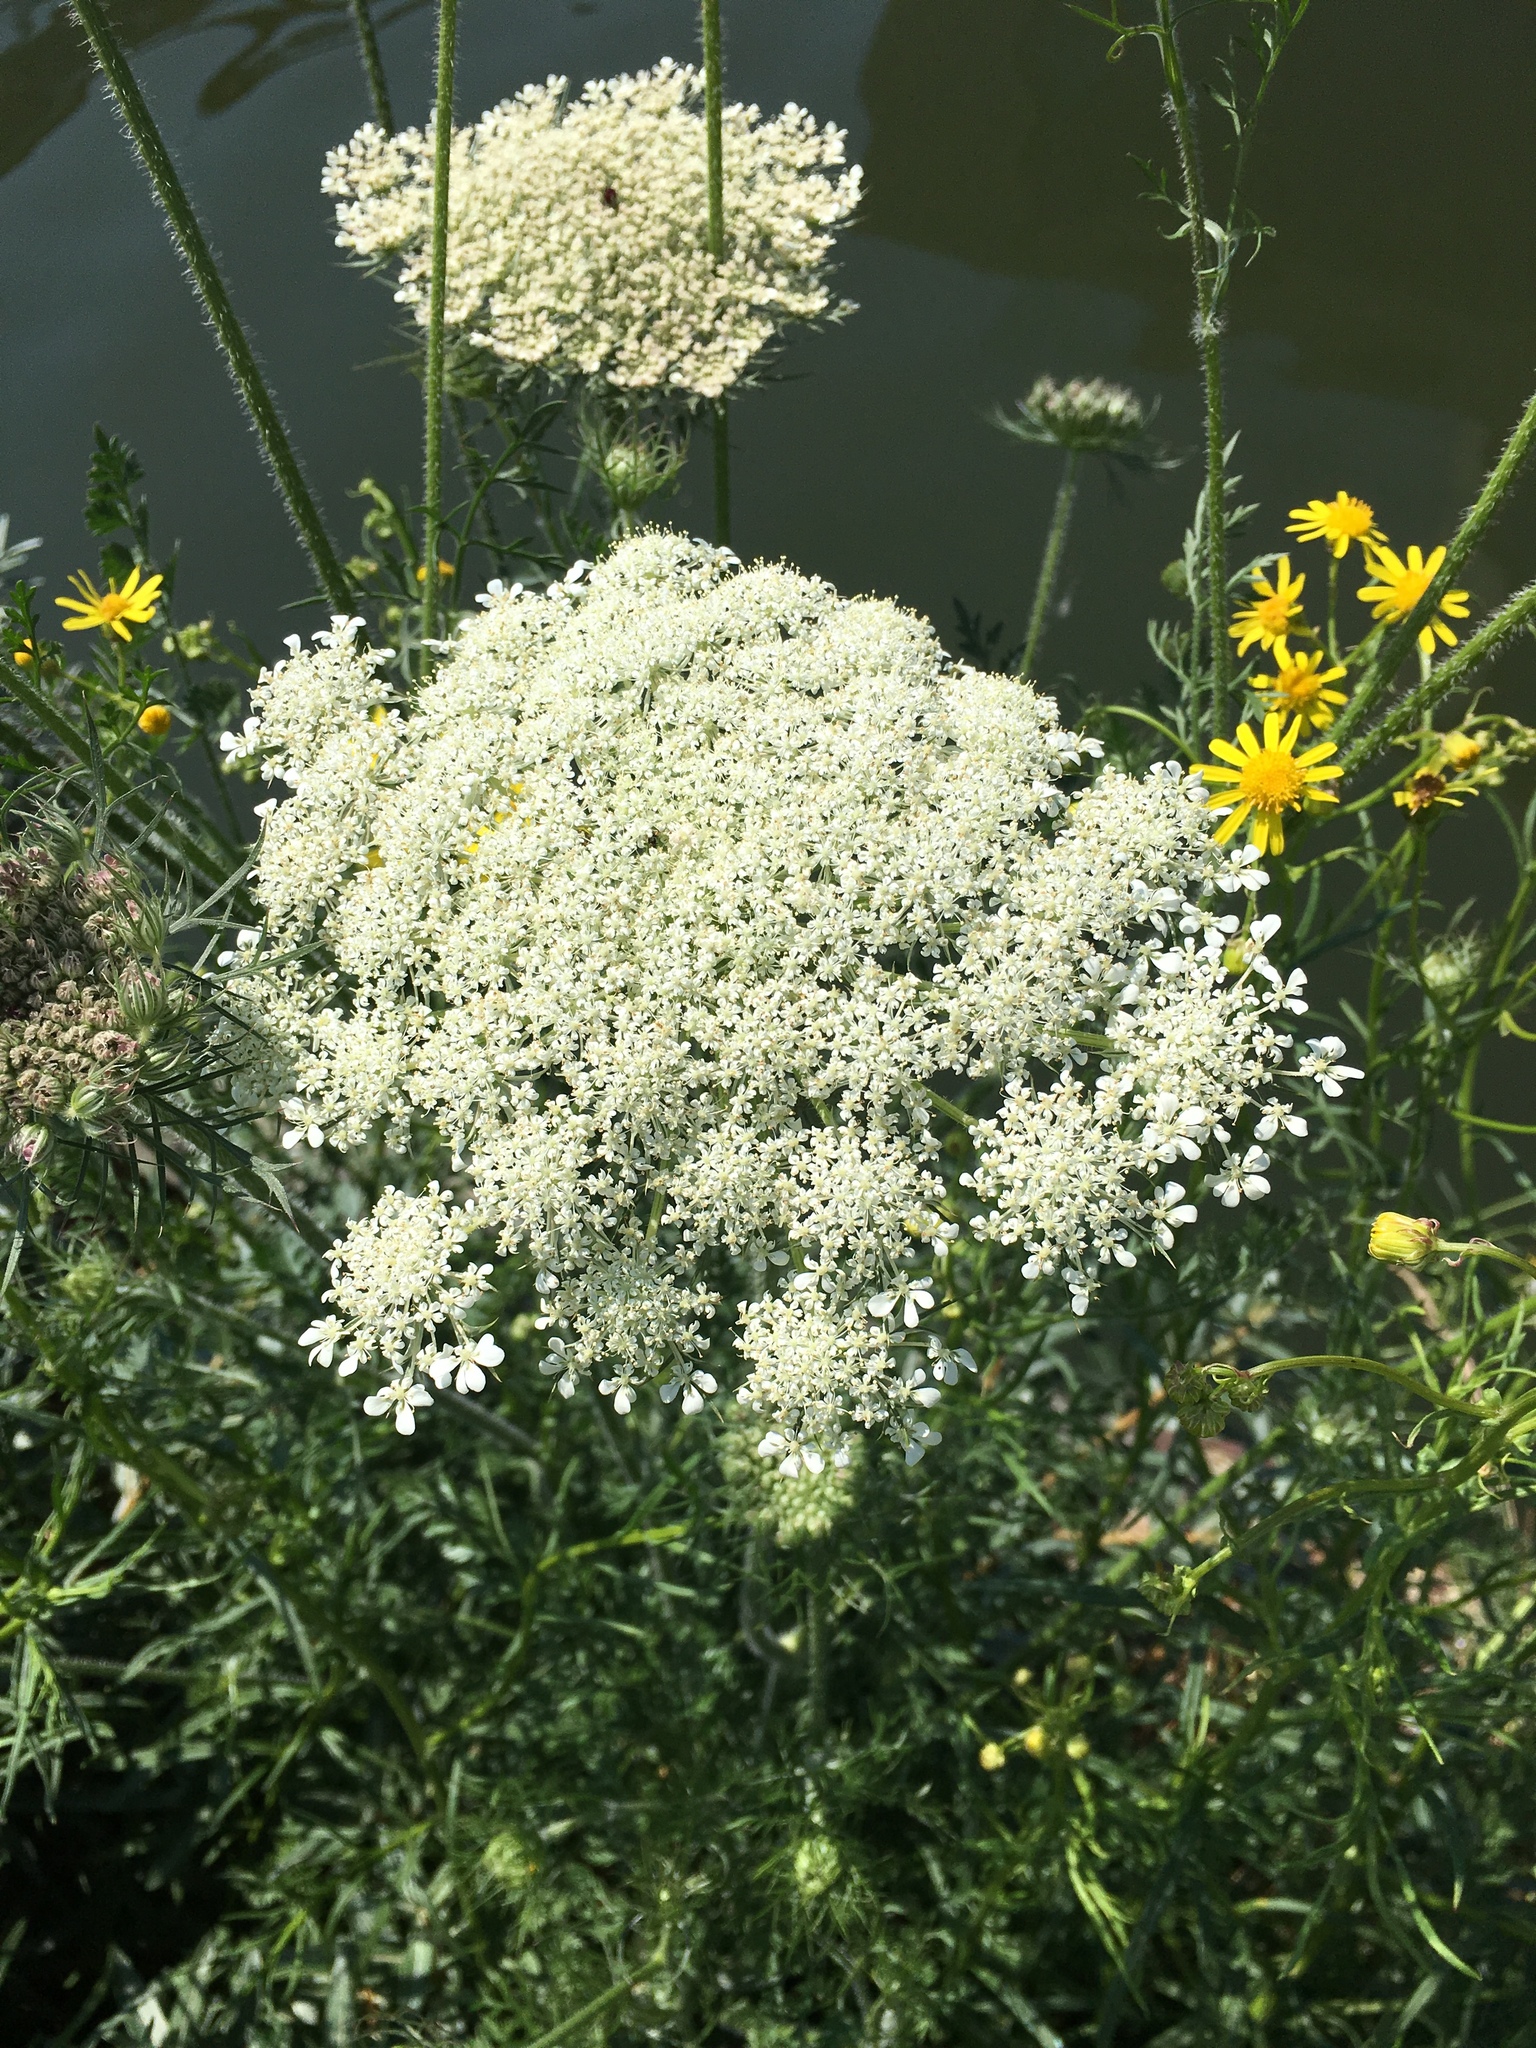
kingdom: Plantae
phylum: Tracheophyta
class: Magnoliopsida
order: Apiales
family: Apiaceae
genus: Daucus
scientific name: Daucus carota
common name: Wild carrot
